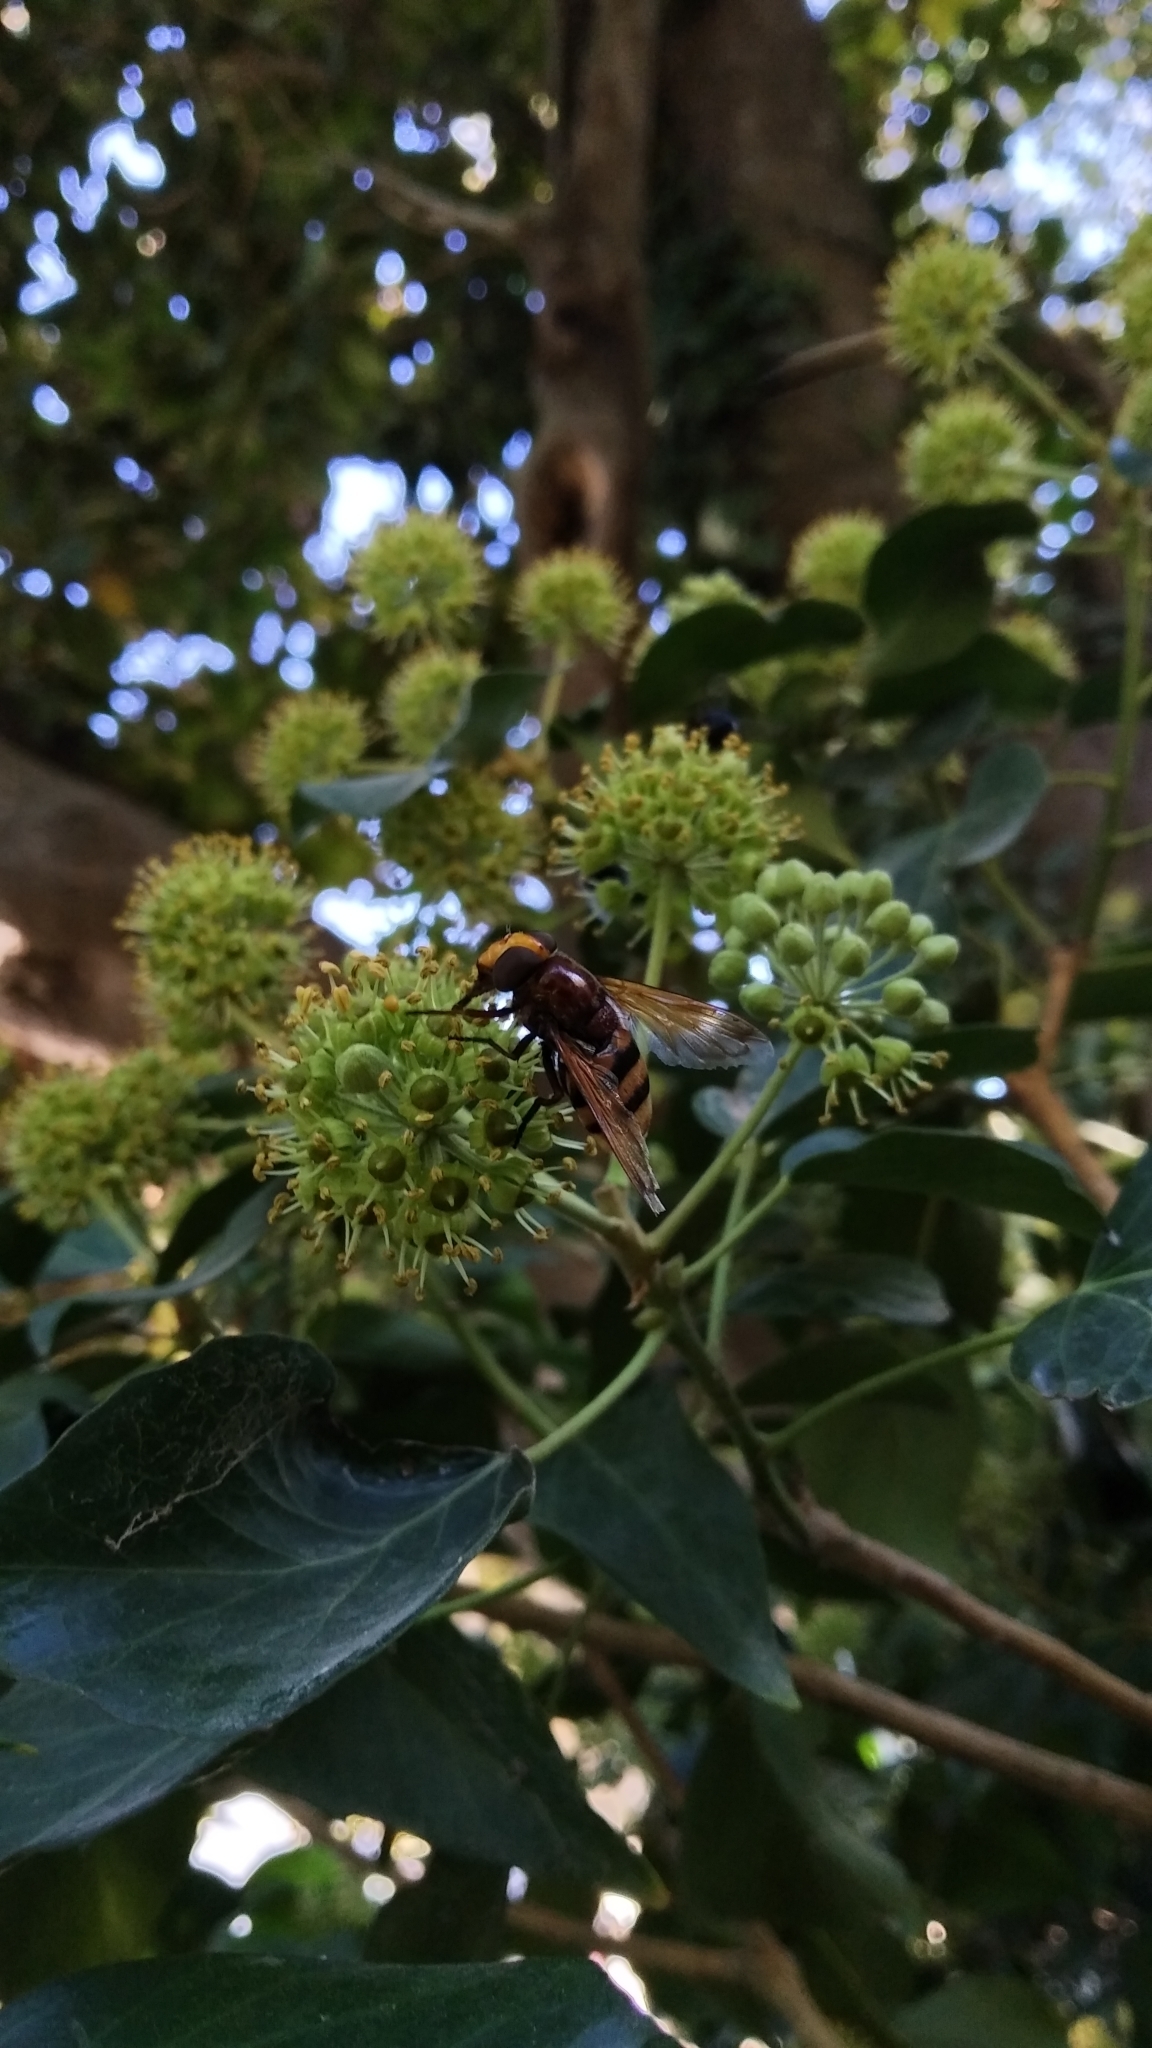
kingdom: Animalia
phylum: Arthropoda
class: Insecta
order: Diptera
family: Syrphidae
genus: Volucella
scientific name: Volucella zonaria
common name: Hornet hoverfly
